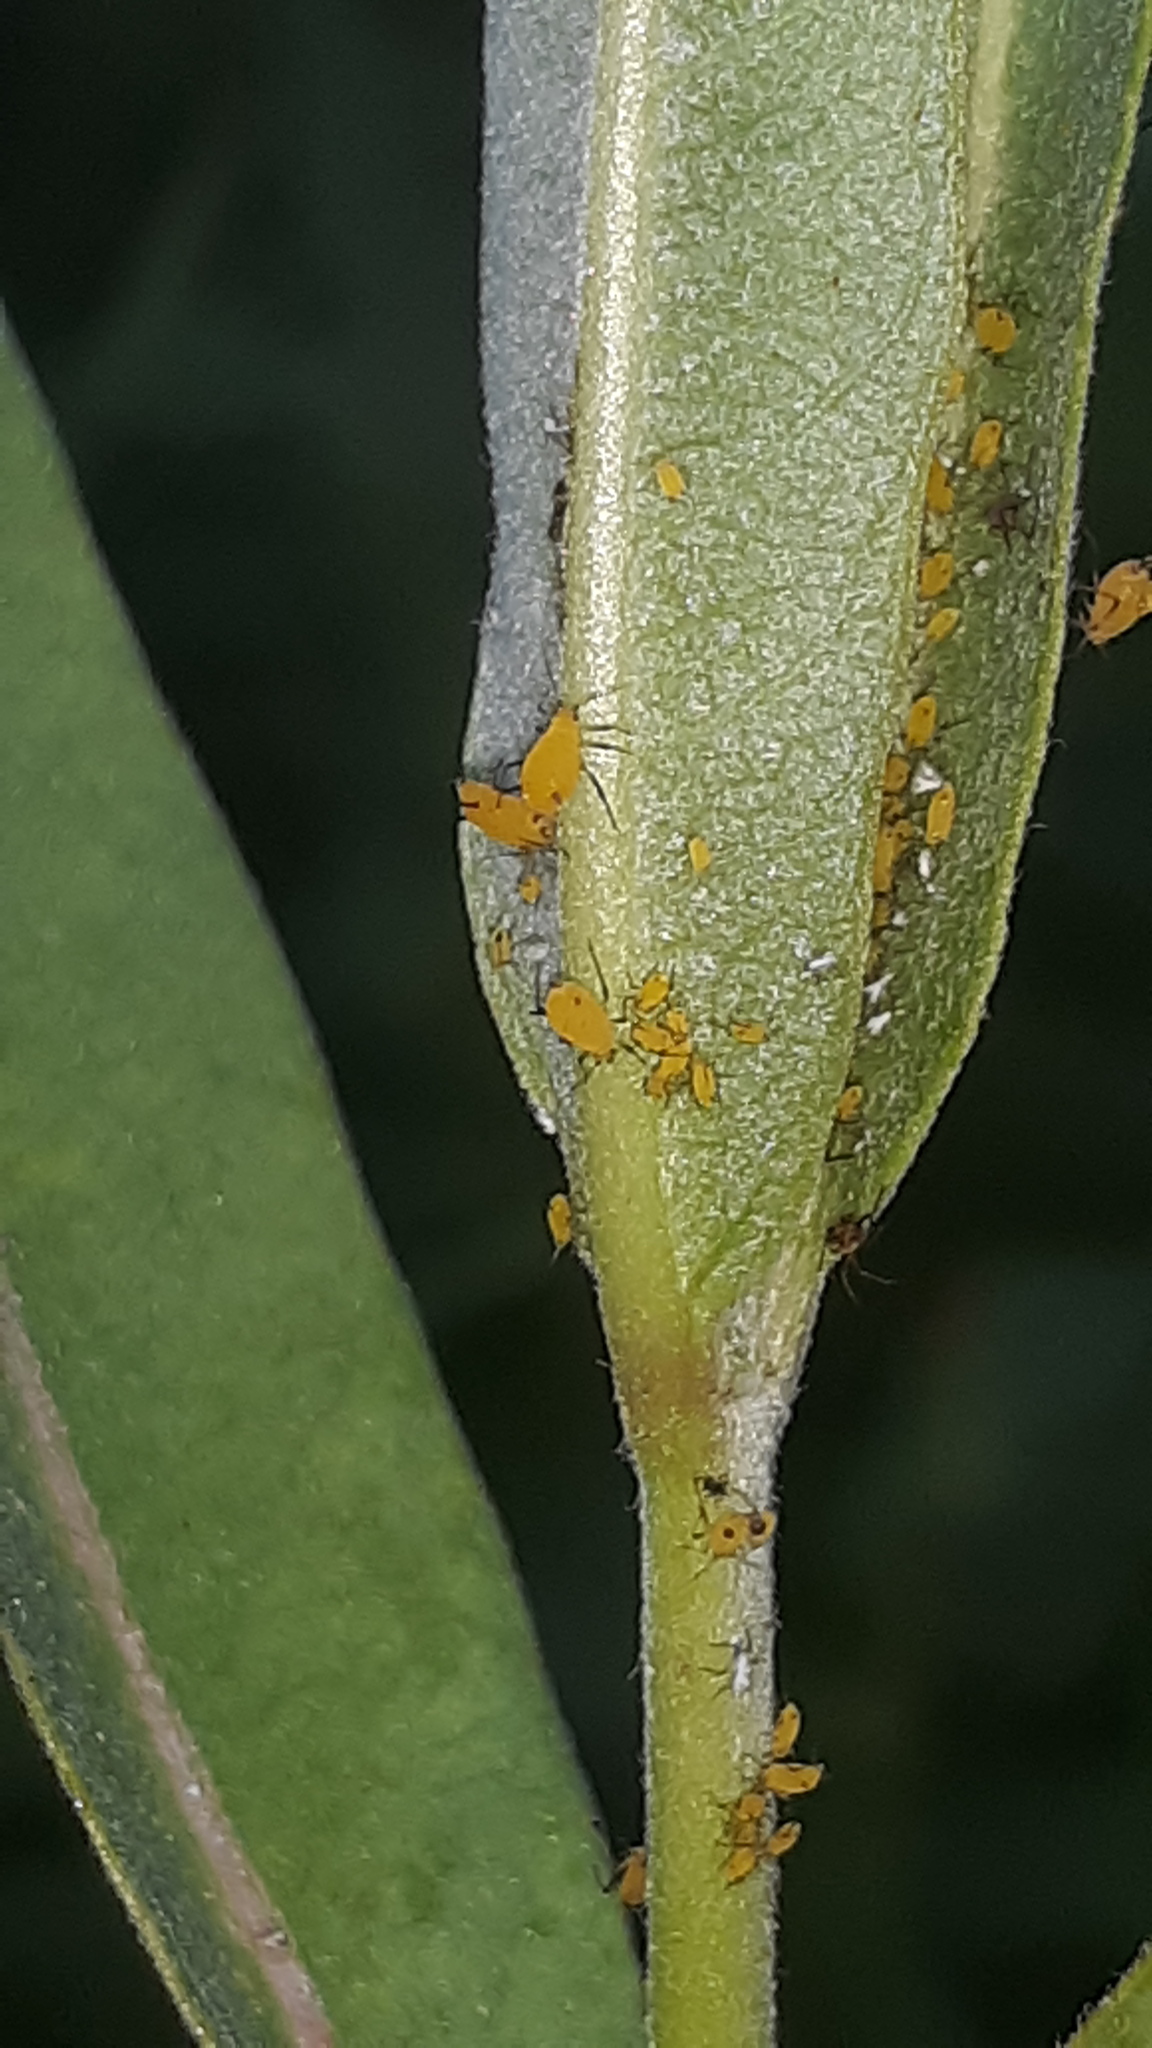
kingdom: Animalia
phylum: Arthropoda
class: Insecta
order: Hemiptera
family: Aphididae
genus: Aphis
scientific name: Aphis nerii
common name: Oleander aphid
